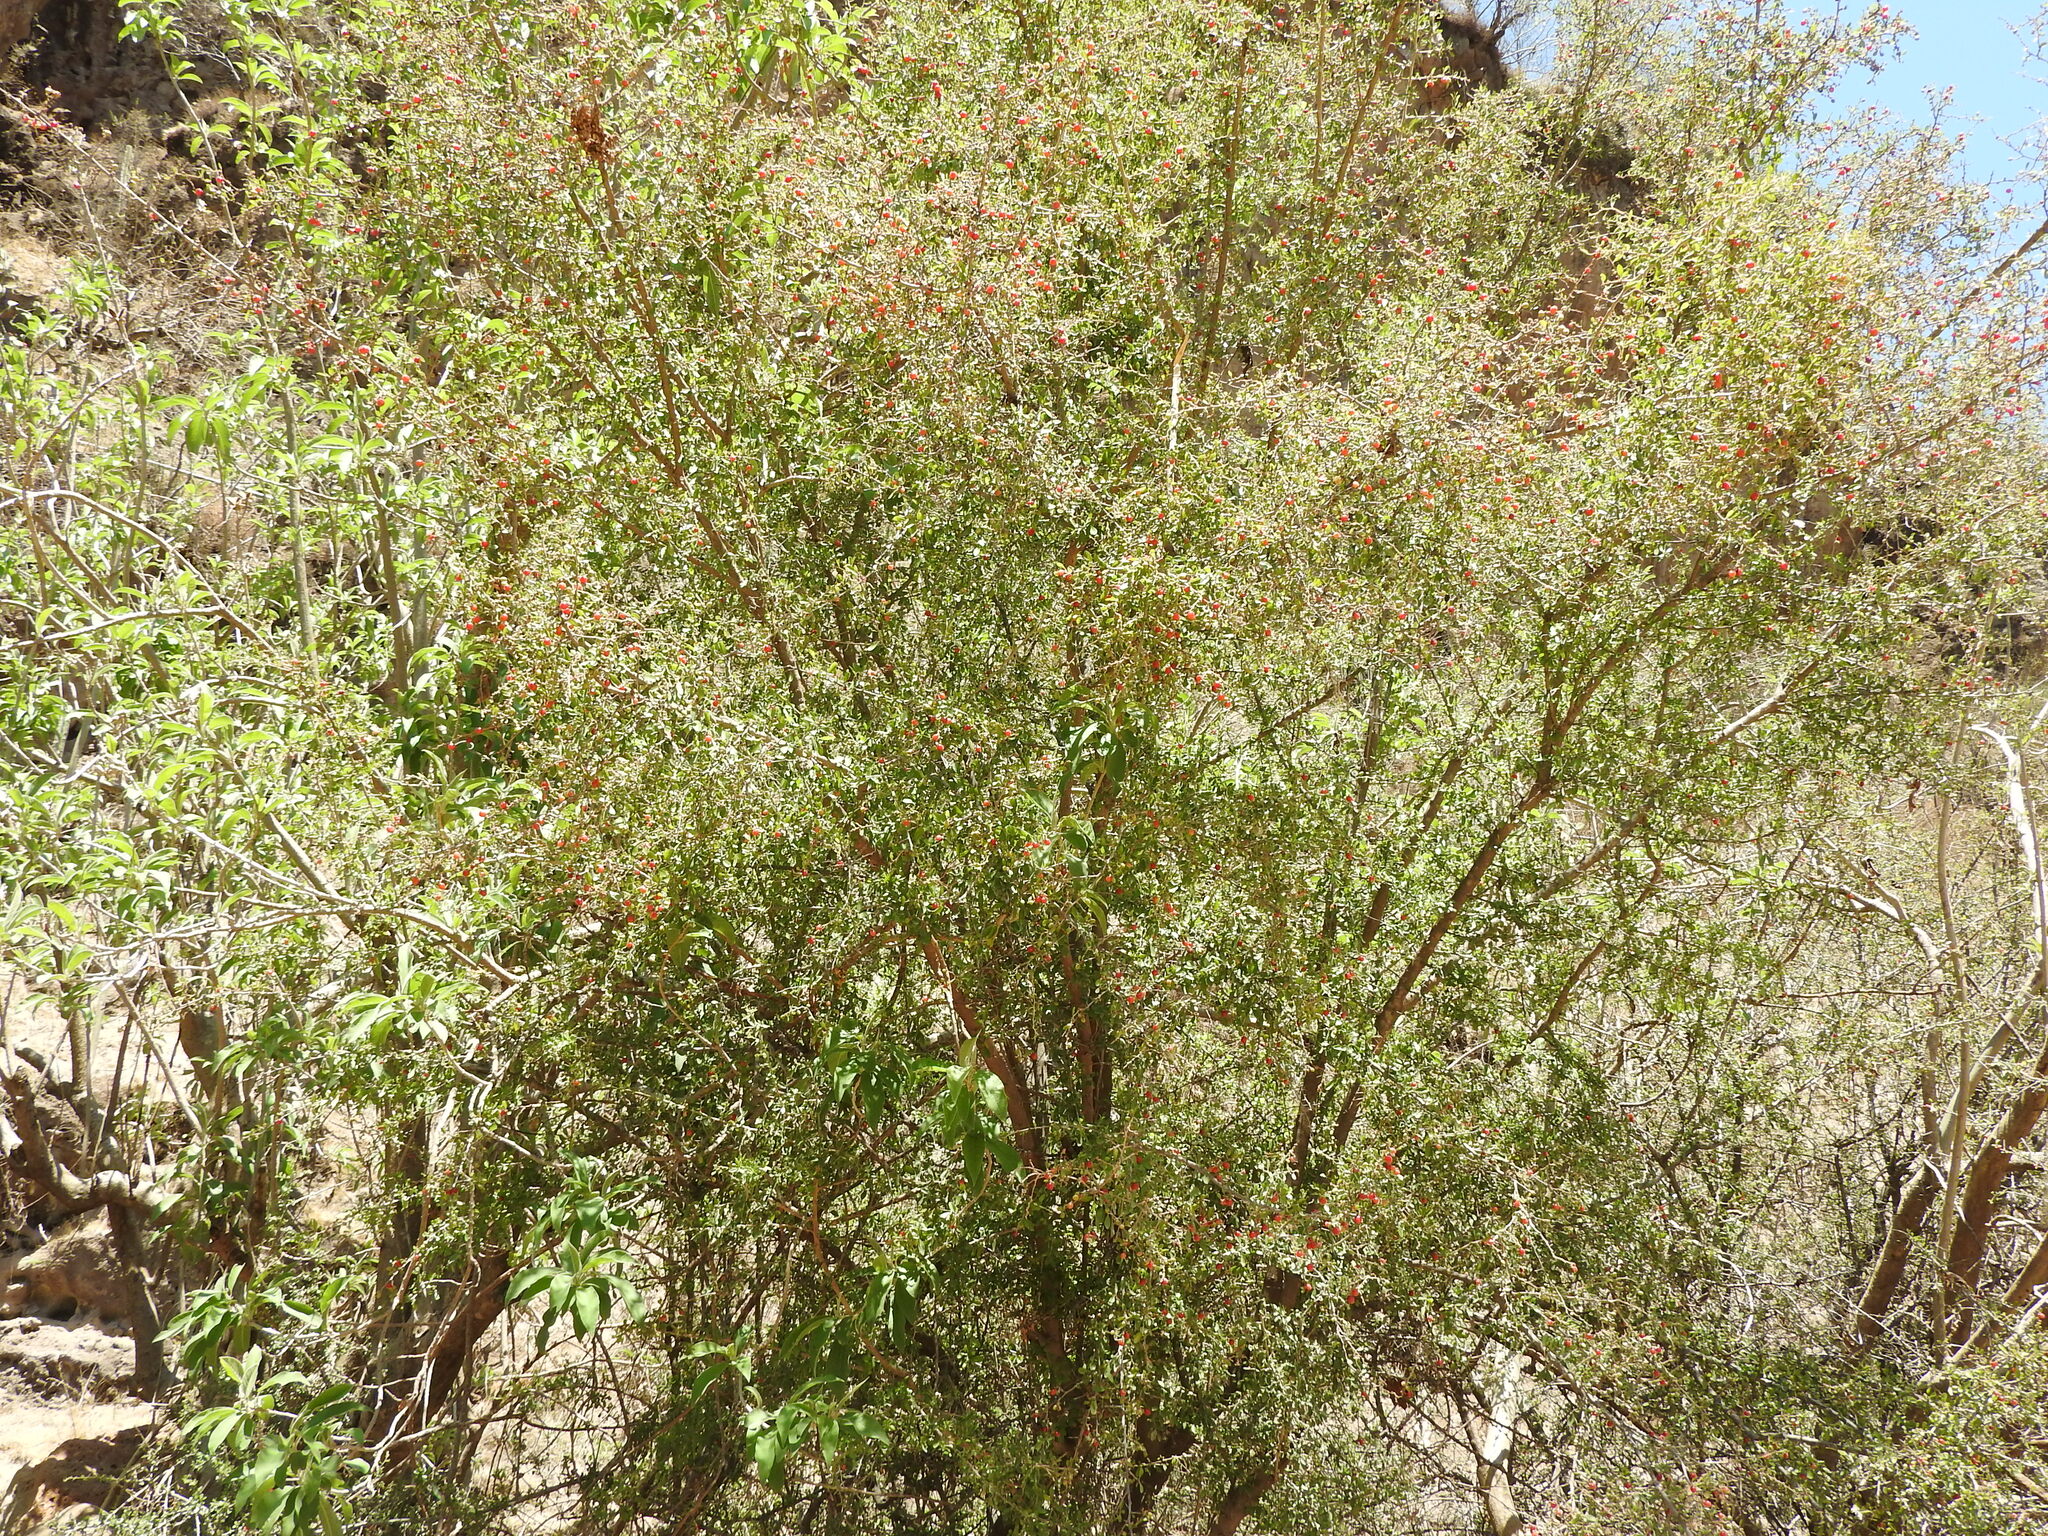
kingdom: Plantae
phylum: Tracheophyta
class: Magnoliopsida
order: Rosales
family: Rhamnaceae
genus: Condalia
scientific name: Condalia velutina
